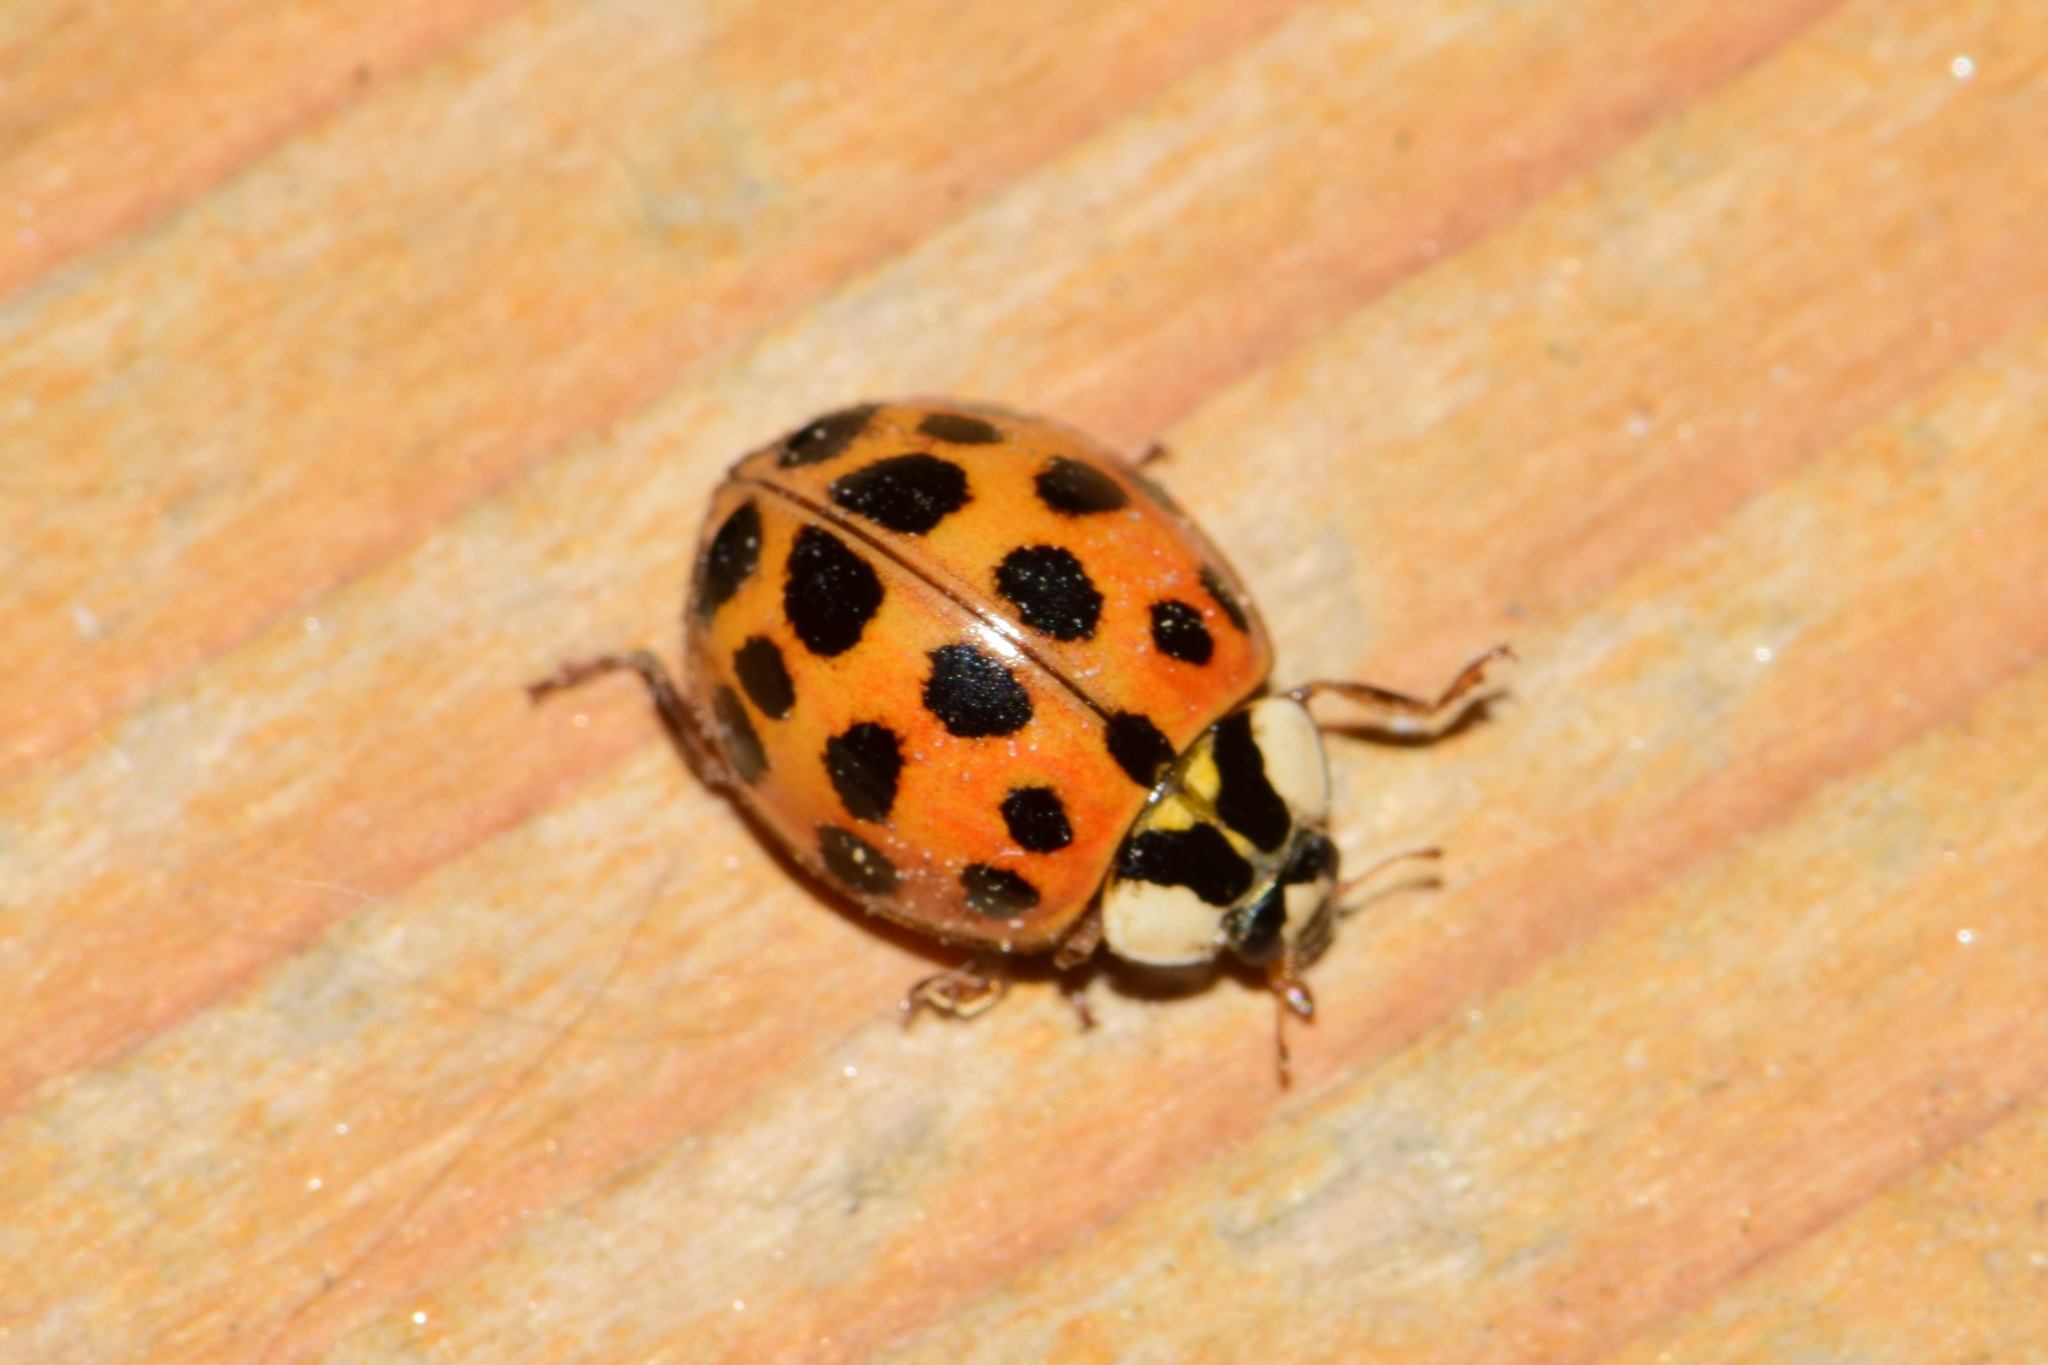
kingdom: Animalia
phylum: Arthropoda
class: Insecta
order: Coleoptera
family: Coccinellidae
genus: Harmonia
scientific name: Harmonia axyridis
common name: Harlequin ladybird
